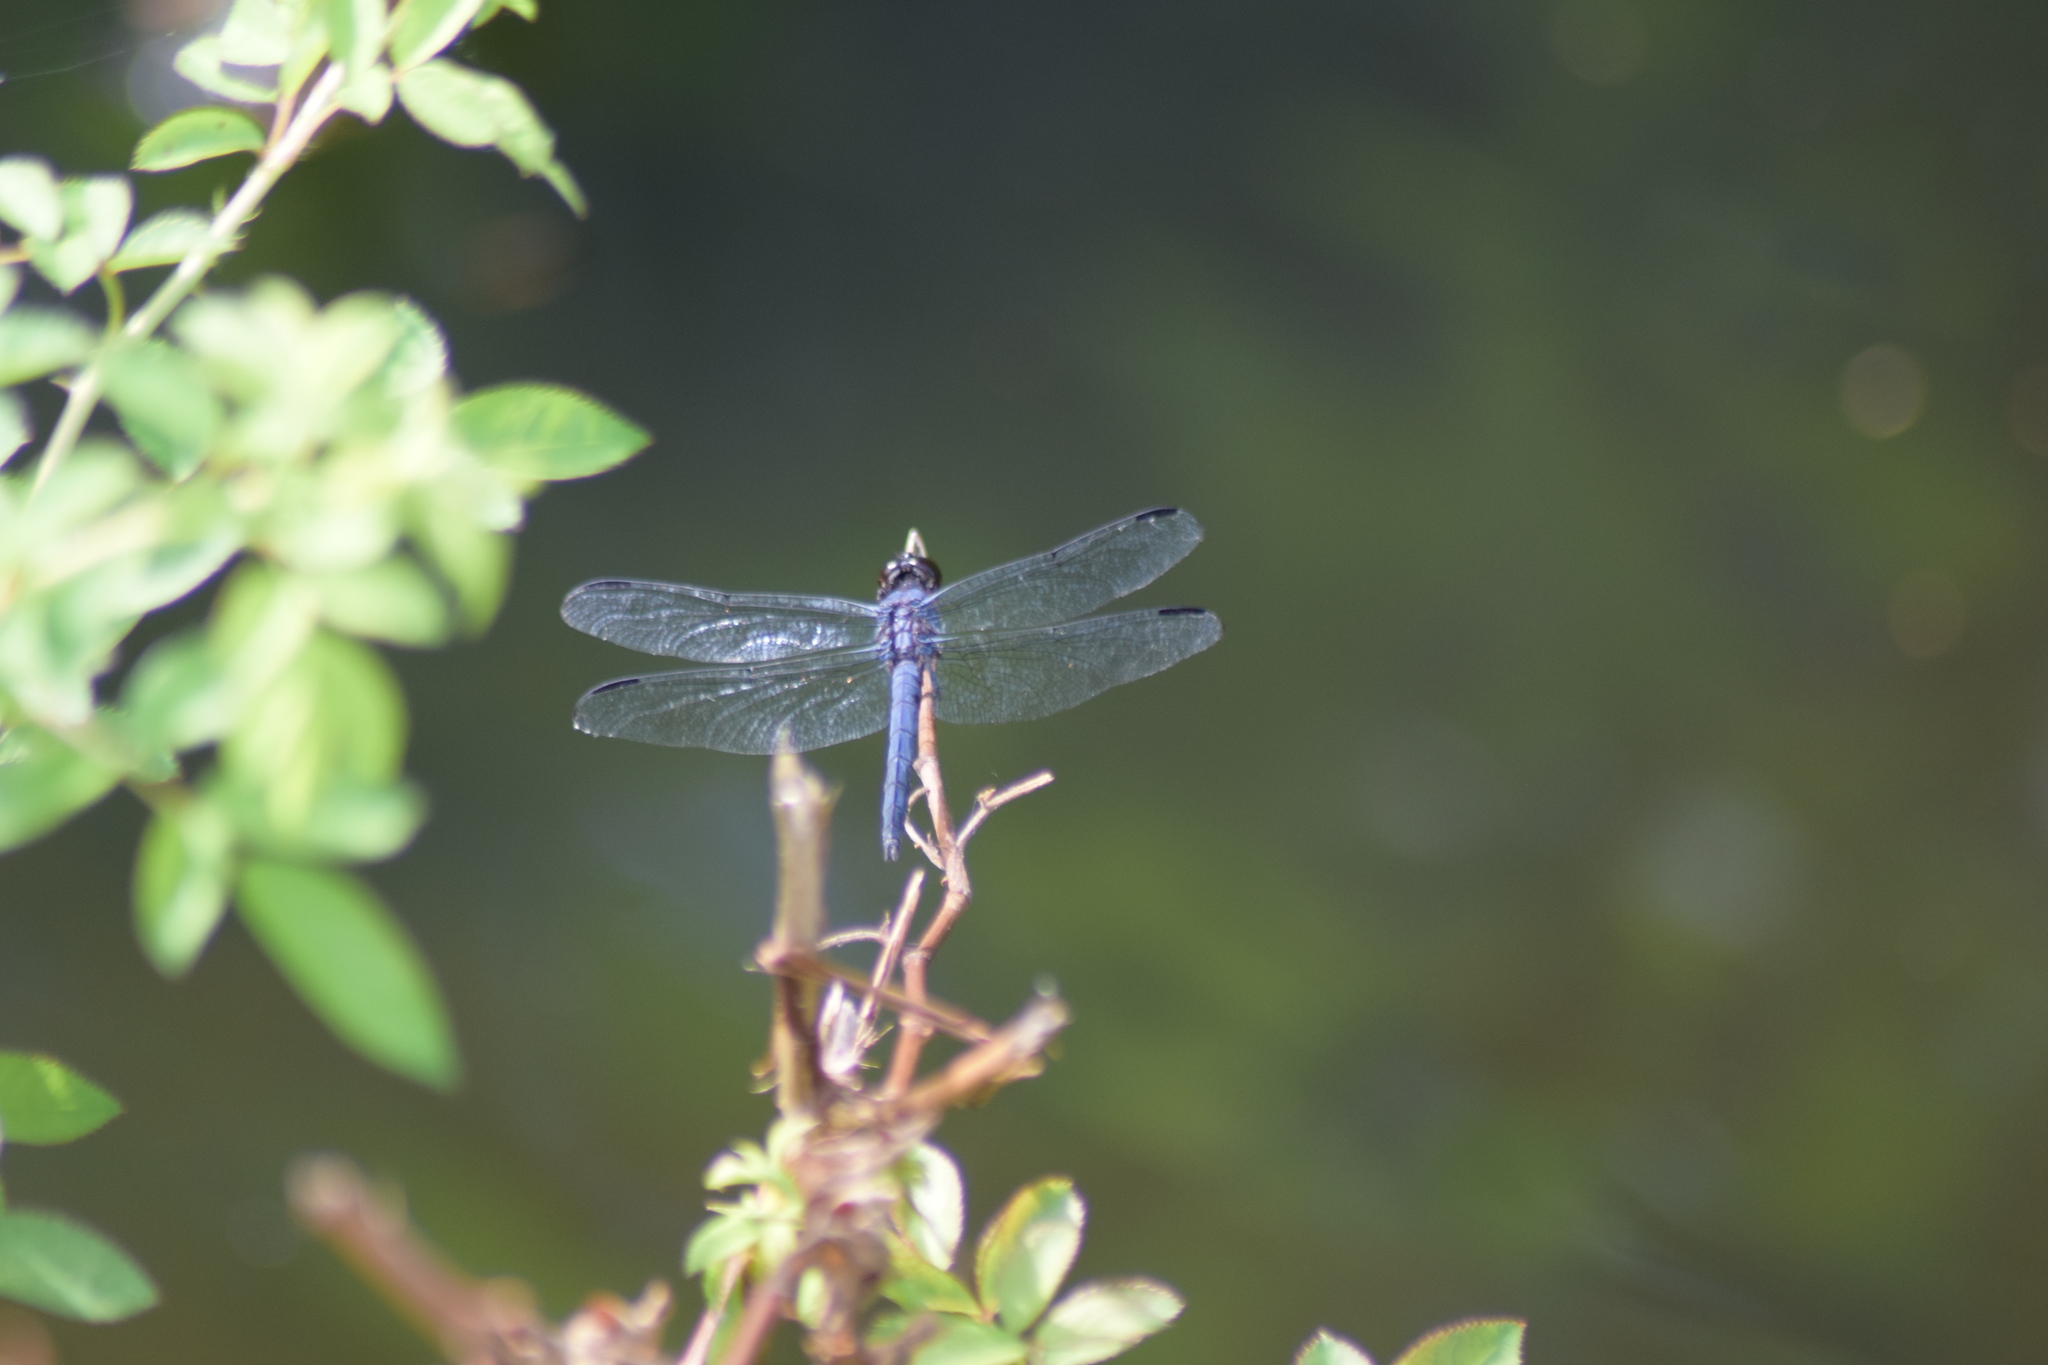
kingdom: Animalia
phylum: Arthropoda
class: Insecta
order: Odonata
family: Libellulidae
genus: Libellula
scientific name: Libellula incesta
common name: Slaty skimmer
